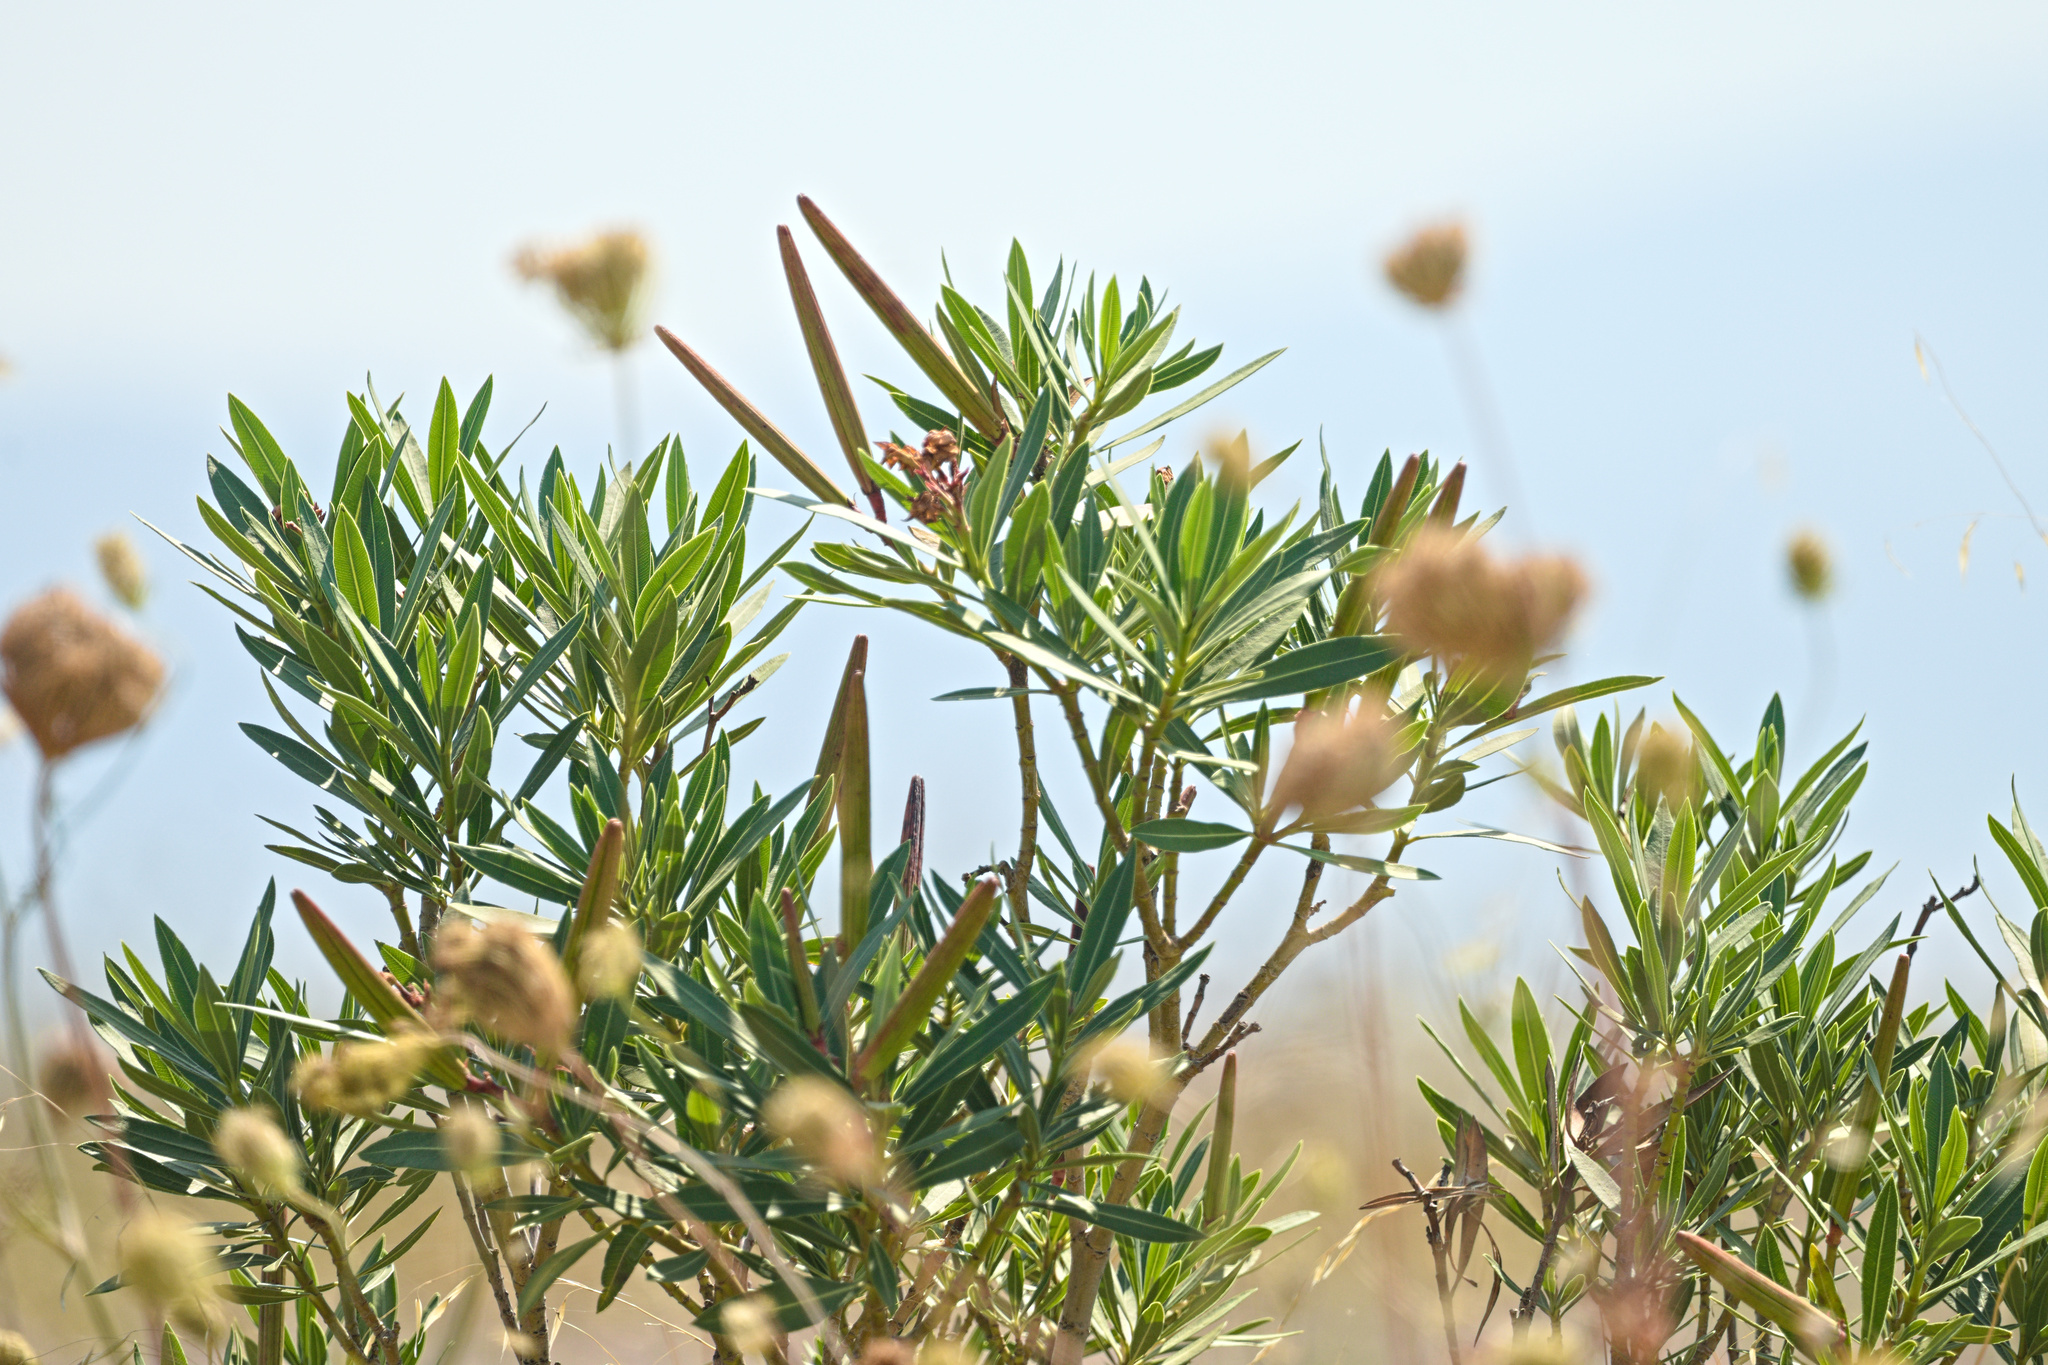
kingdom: Plantae
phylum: Tracheophyta
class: Magnoliopsida
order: Gentianales
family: Apocynaceae
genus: Nerium
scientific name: Nerium oleander
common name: Oleander
